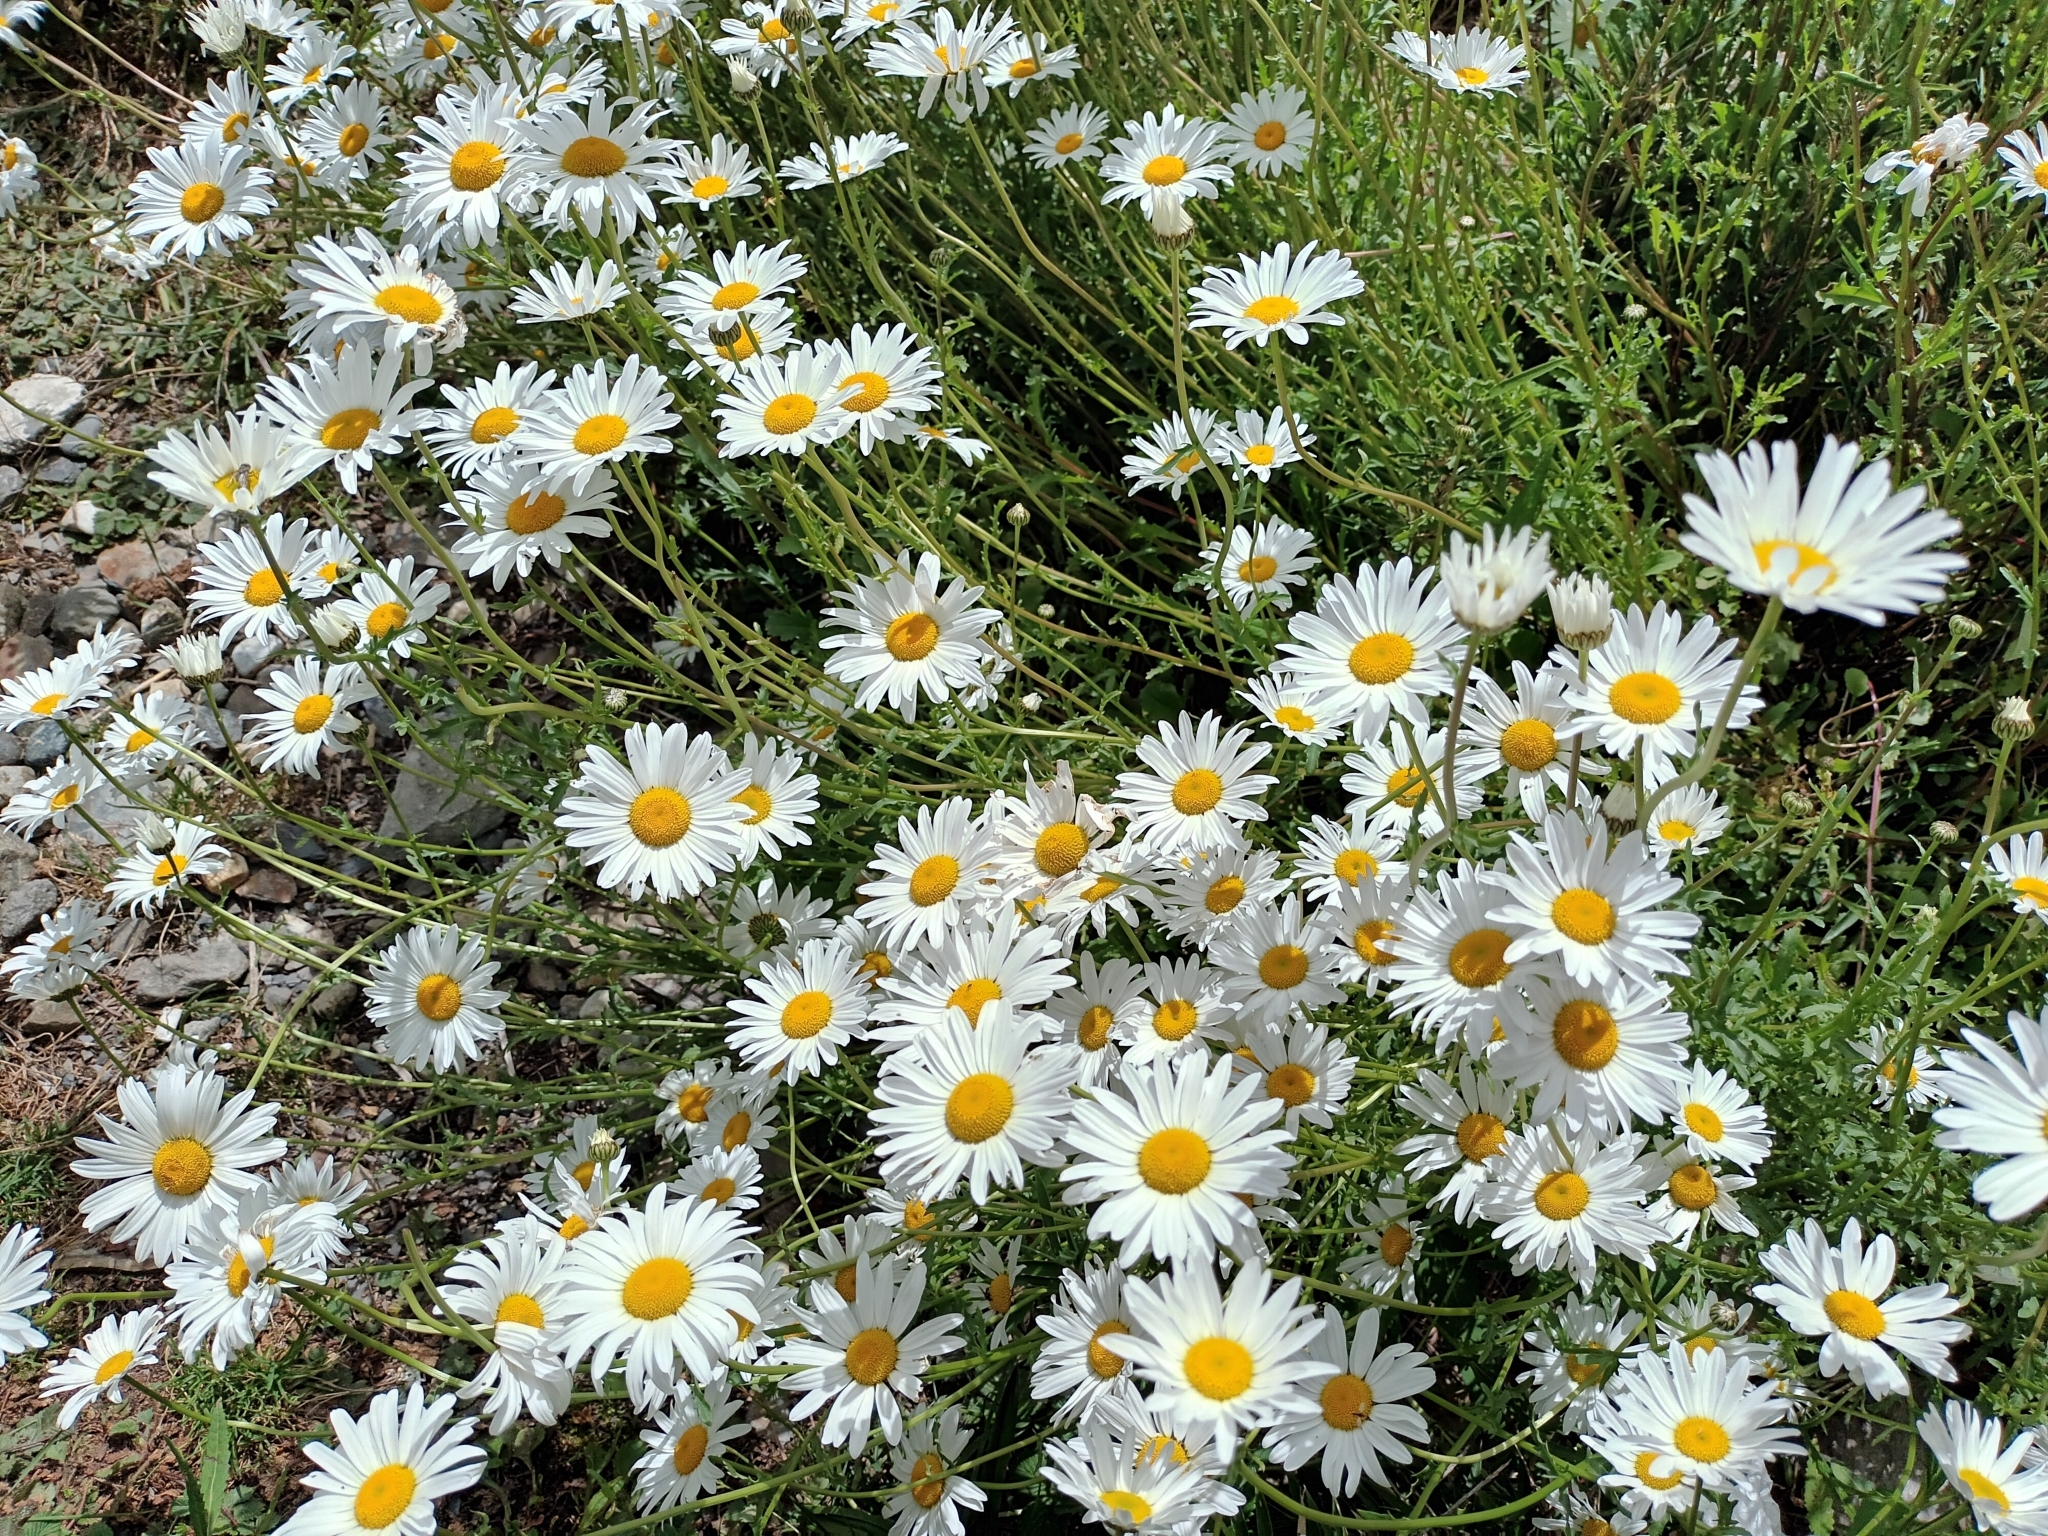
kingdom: Plantae
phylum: Tracheophyta
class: Magnoliopsida
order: Asterales
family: Asteraceae
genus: Leucanthemum
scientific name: Leucanthemum vulgare
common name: Oxeye daisy
